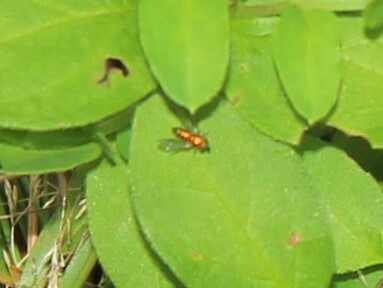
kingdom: Animalia
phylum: Arthropoda
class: Insecta
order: Diptera
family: Dolichopodidae
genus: Condylostylus
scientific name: Condylostylus
